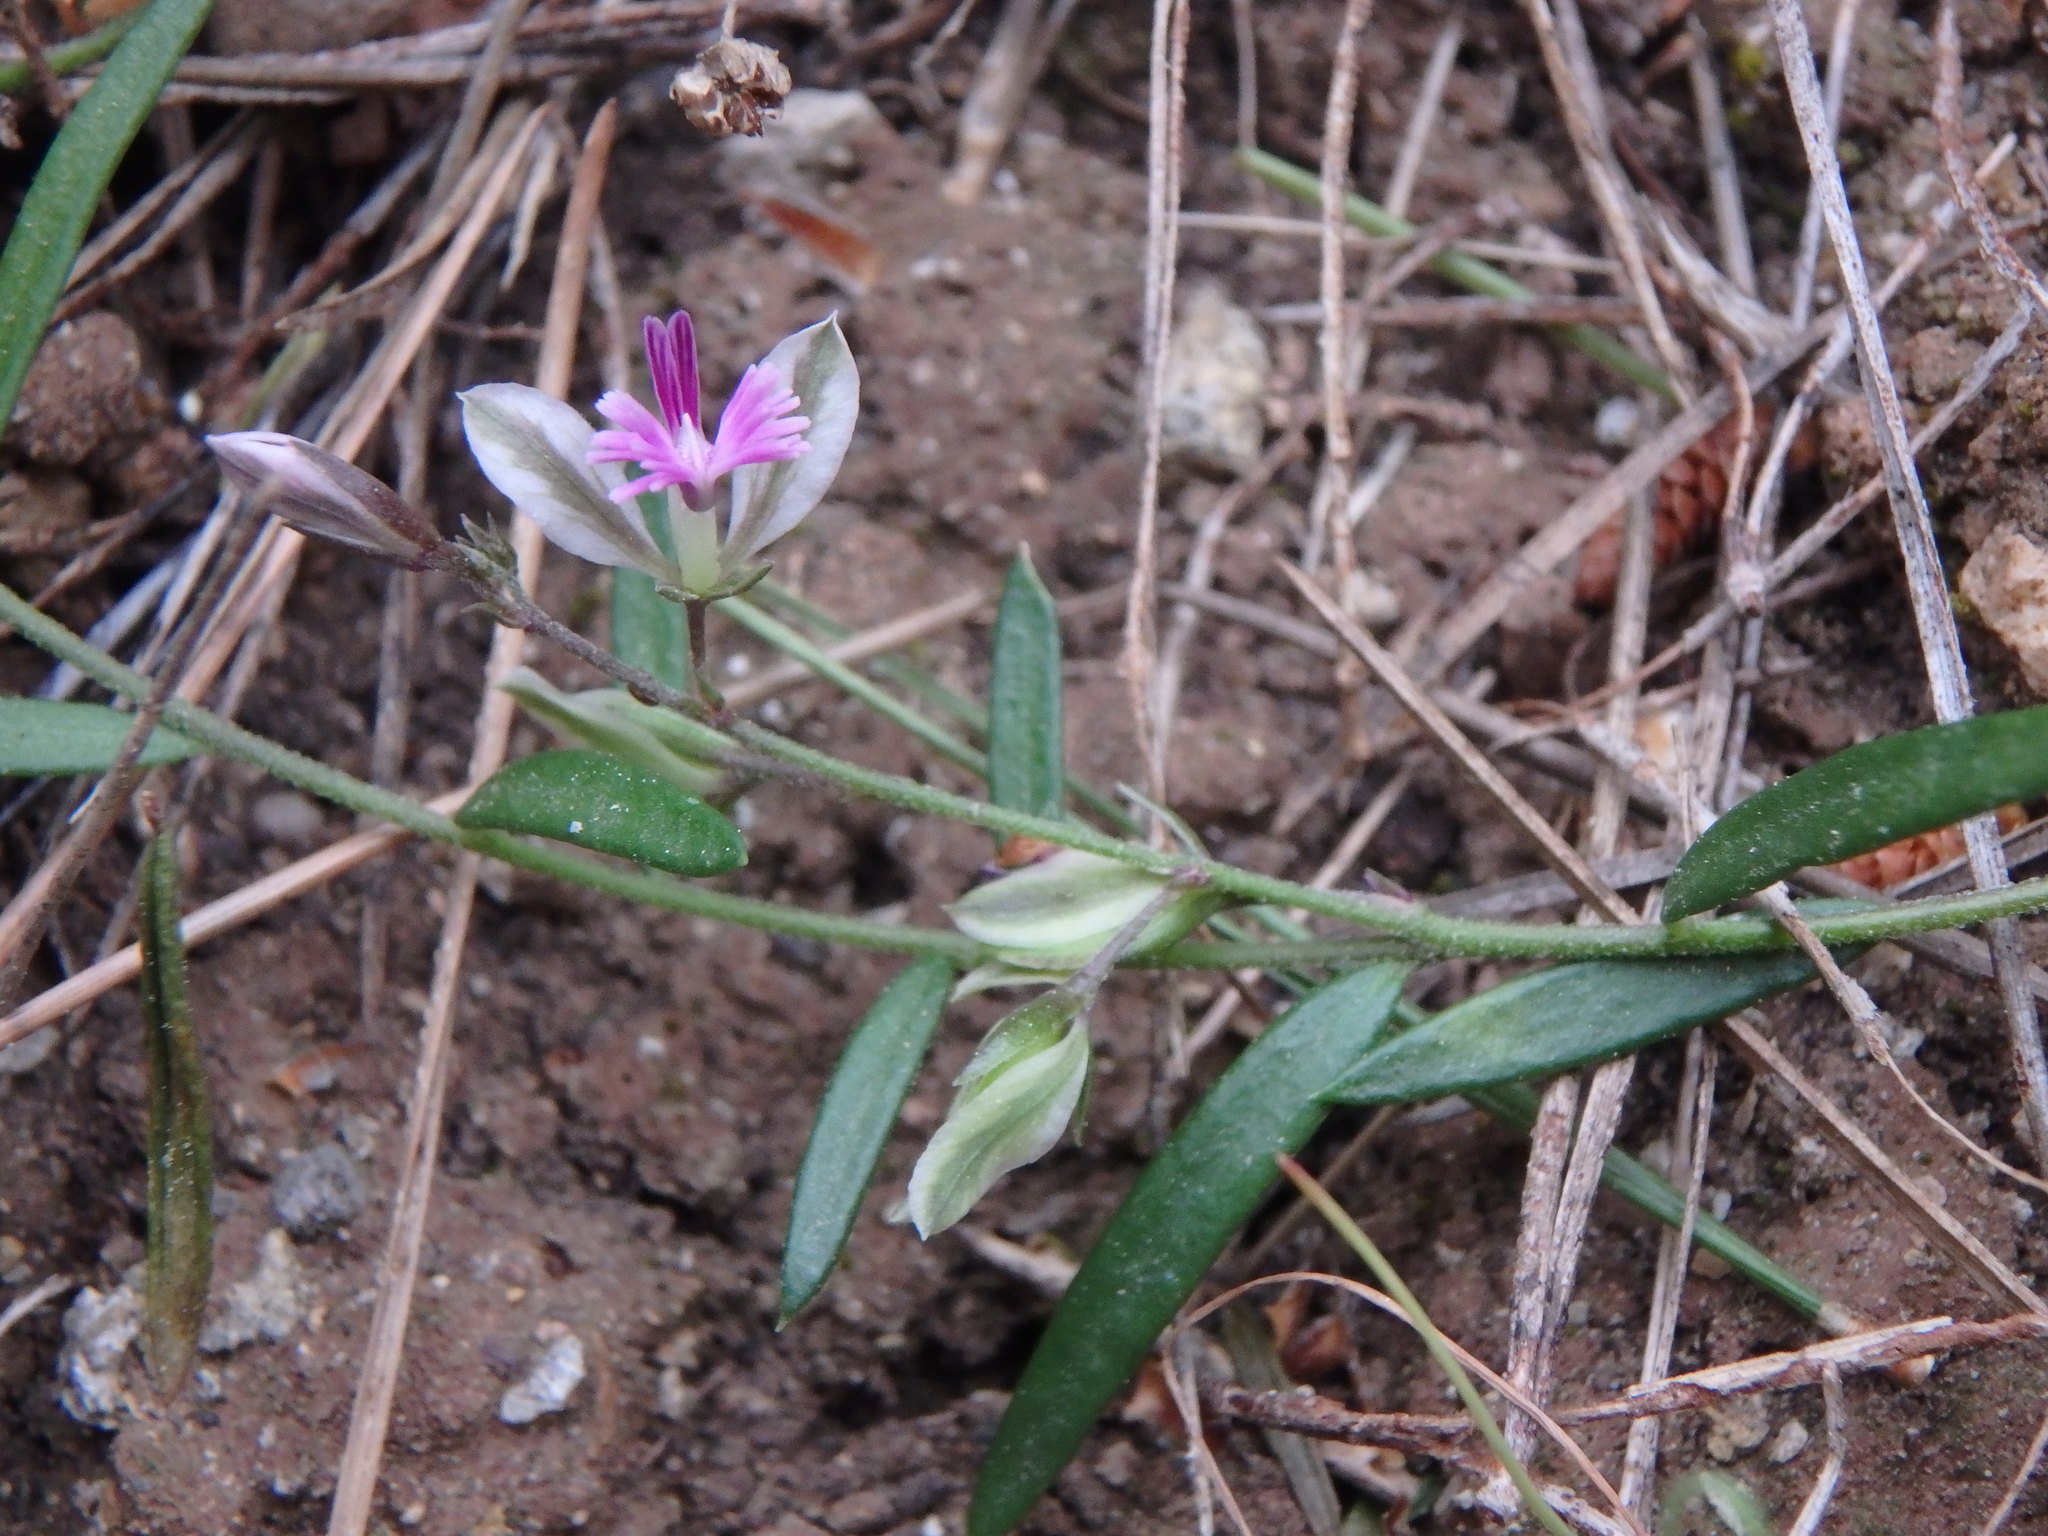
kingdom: Plantae
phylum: Tracheophyta
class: Magnoliopsida
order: Fabales
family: Polygalaceae
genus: Polygala
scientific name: Polygala rupestris
